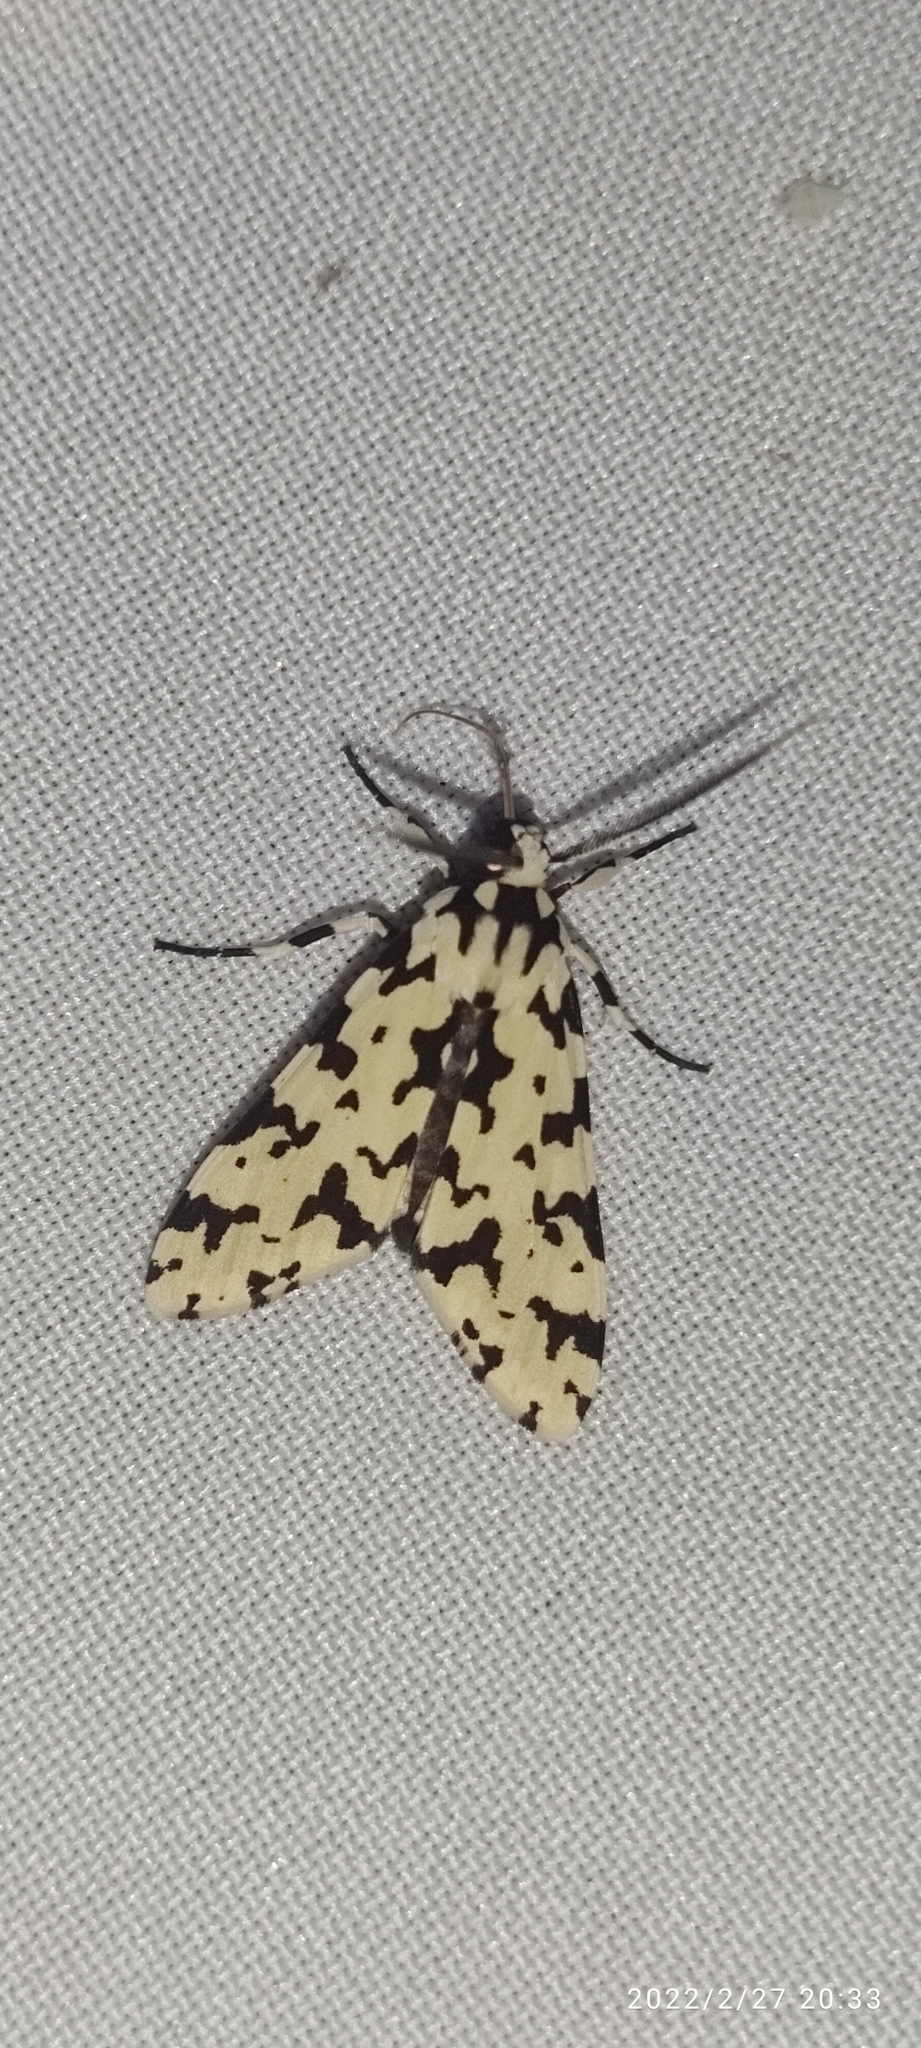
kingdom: Animalia
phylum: Arthropoda
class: Insecta
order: Lepidoptera
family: Erebidae
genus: Eucereon
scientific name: Eucereon tigrata
